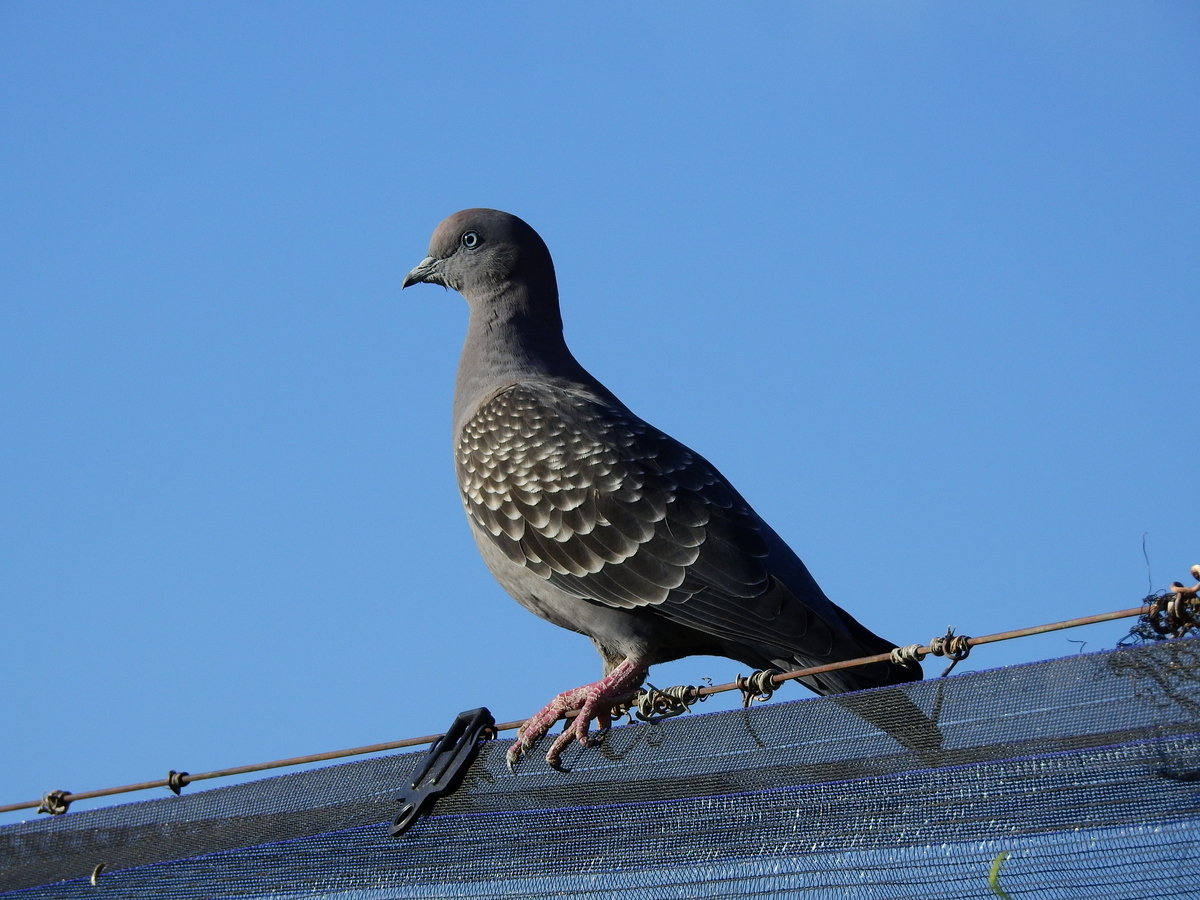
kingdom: Animalia
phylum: Chordata
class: Aves
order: Columbiformes
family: Columbidae
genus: Patagioenas
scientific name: Patagioenas maculosa
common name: Spot-winged pigeon
